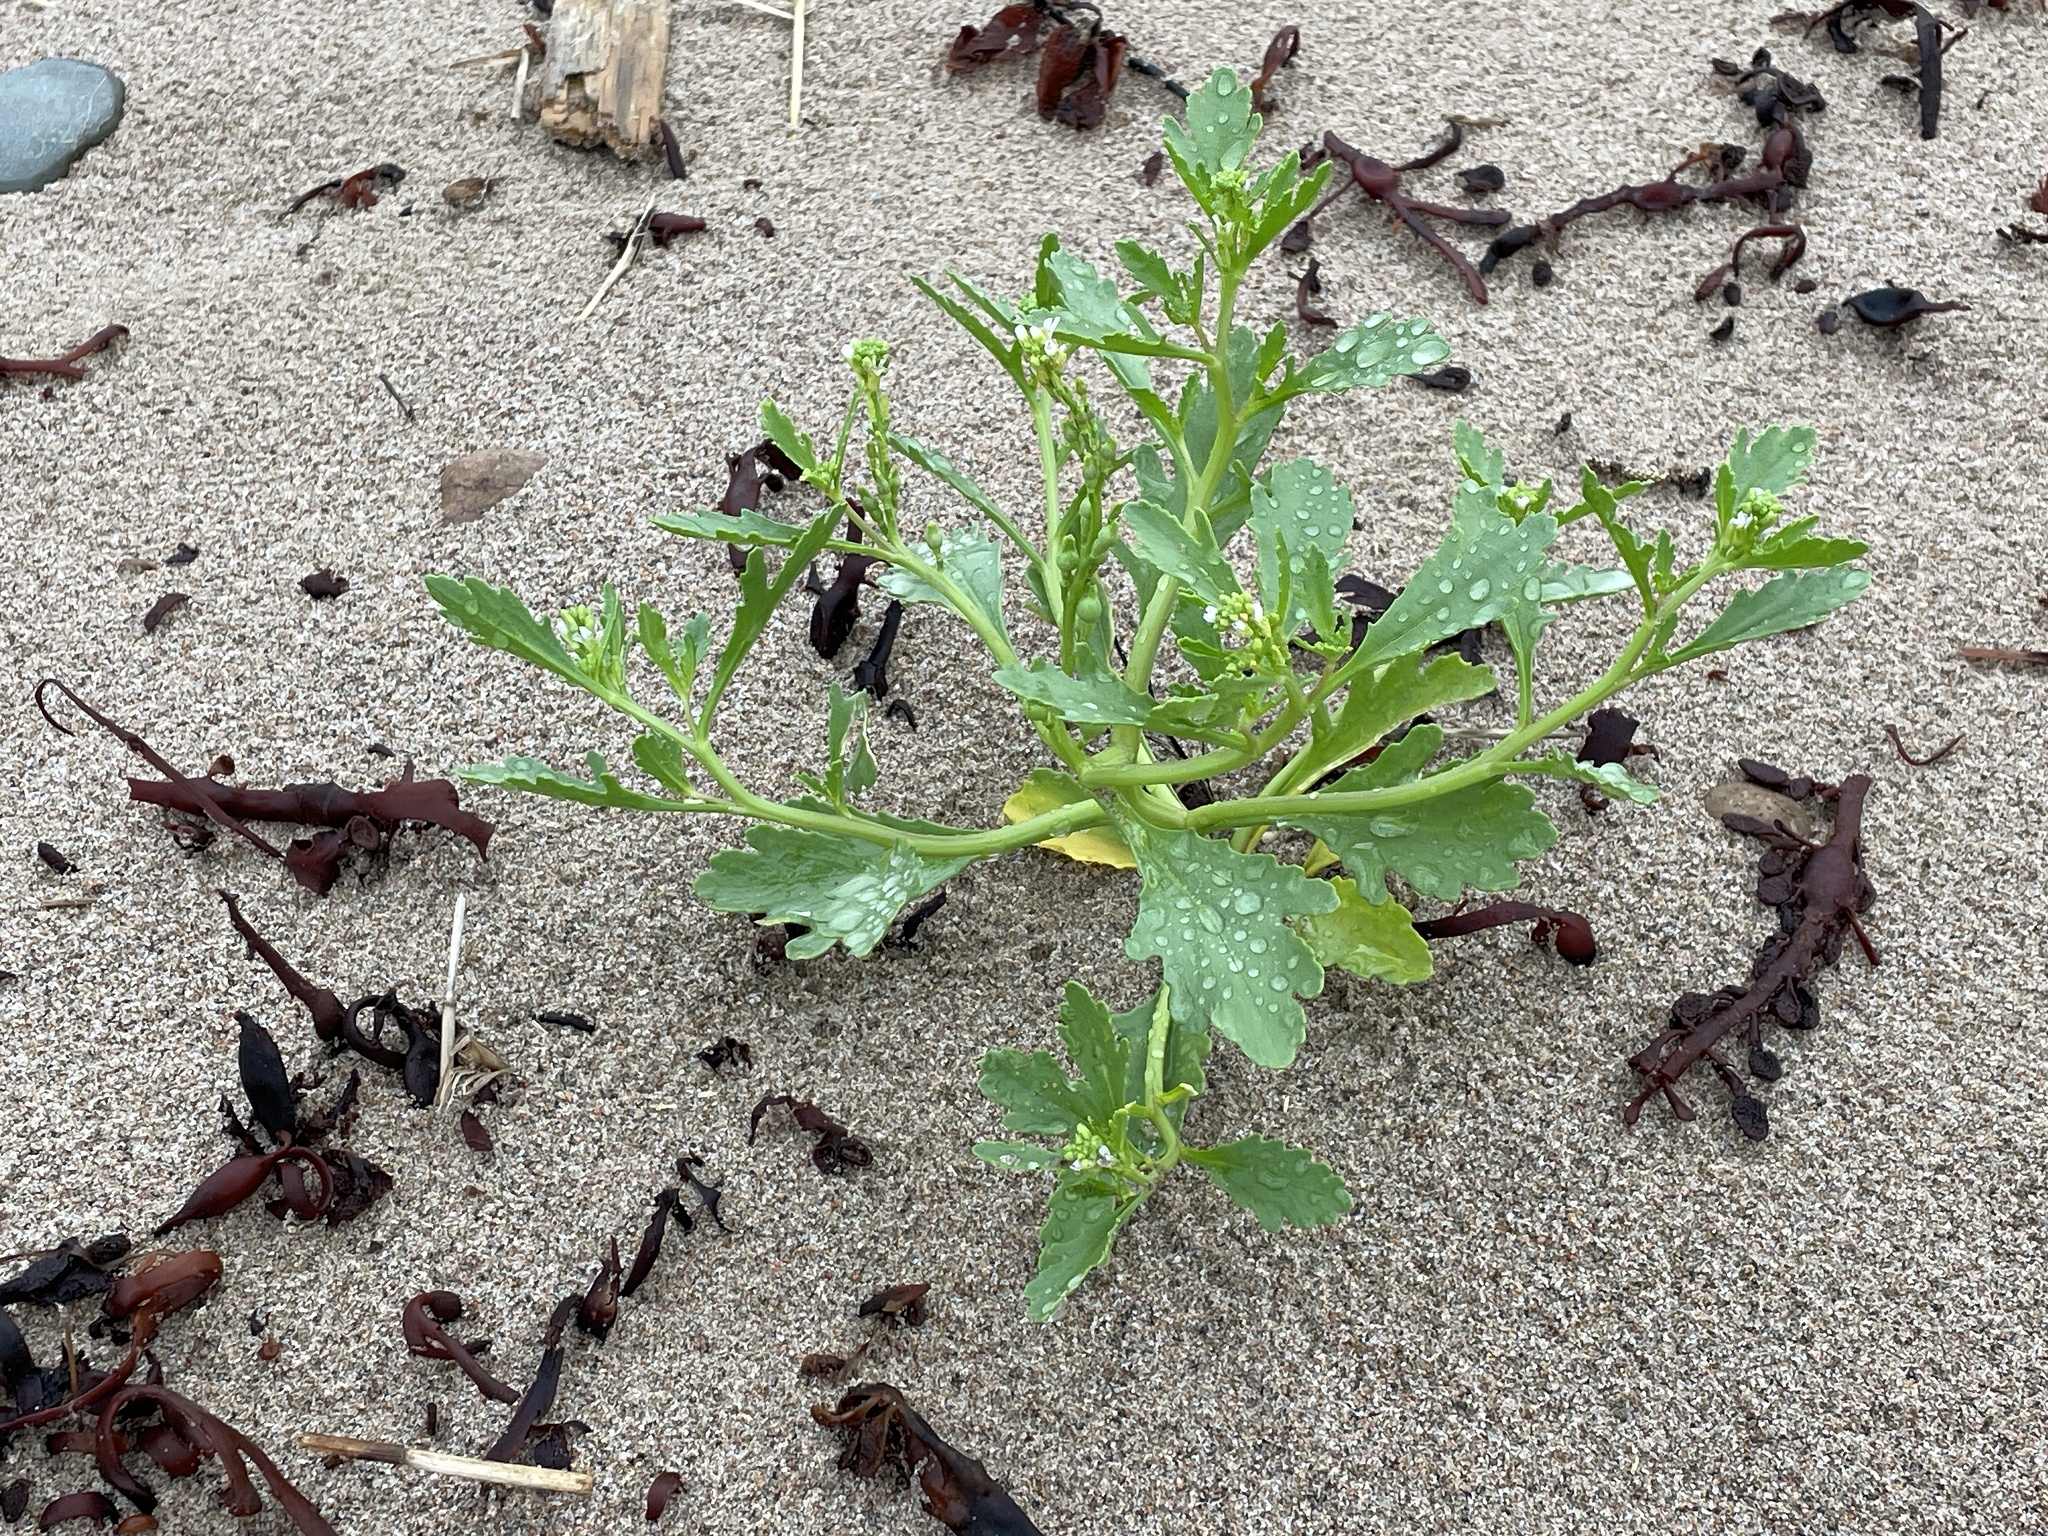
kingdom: Plantae
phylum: Tracheophyta
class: Magnoliopsida
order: Brassicales
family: Brassicaceae
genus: Cakile
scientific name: Cakile edentula
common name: American sea rocket
